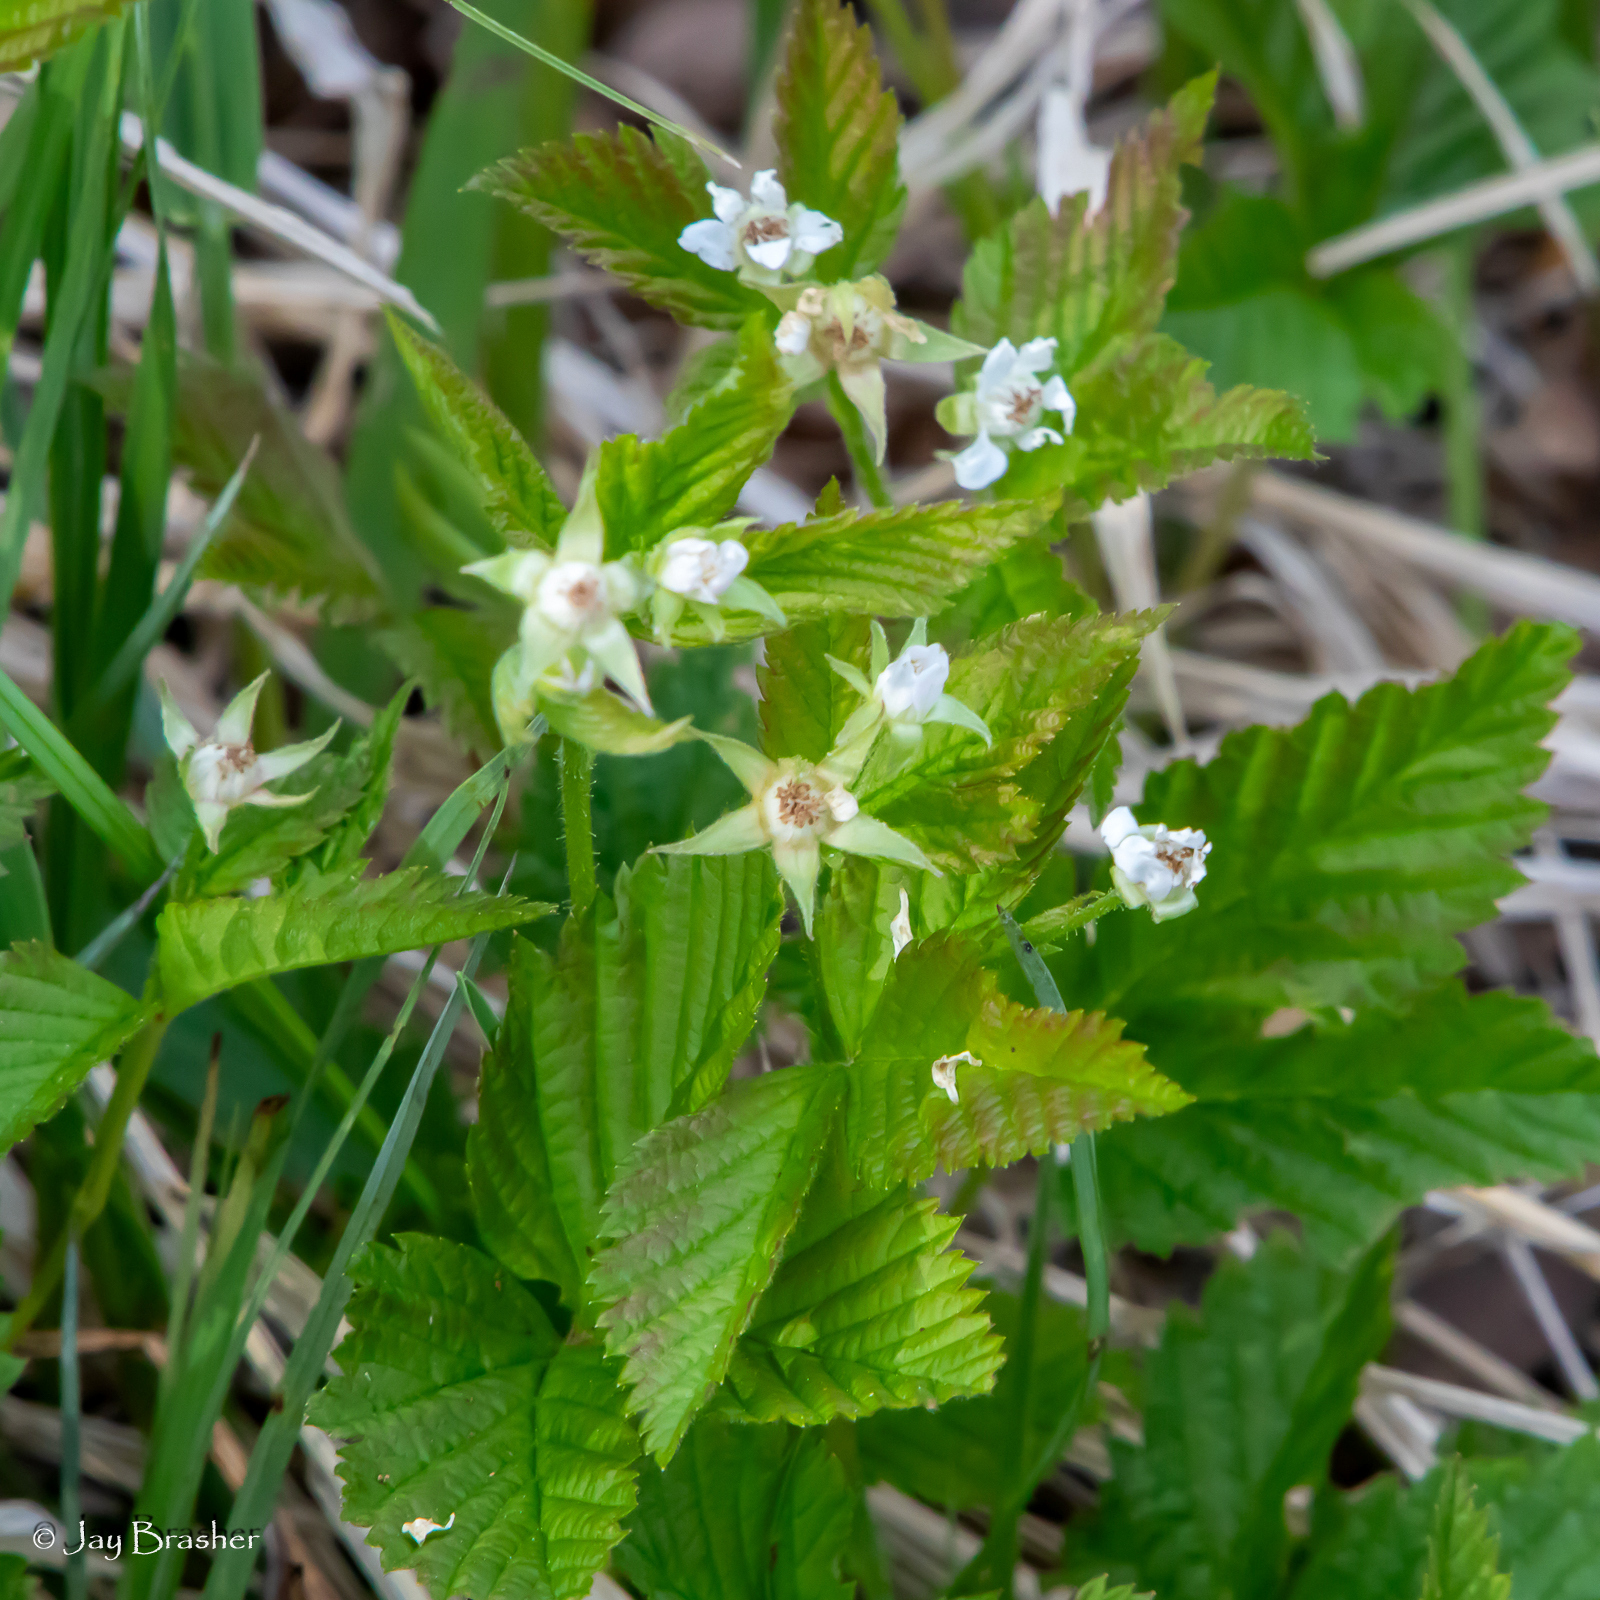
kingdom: Plantae
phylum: Tracheophyta
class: Magnoliopsida
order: Rosales
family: Rosaceae
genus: Rubus
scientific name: Rubus pubescens
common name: Dwarf raspberry
